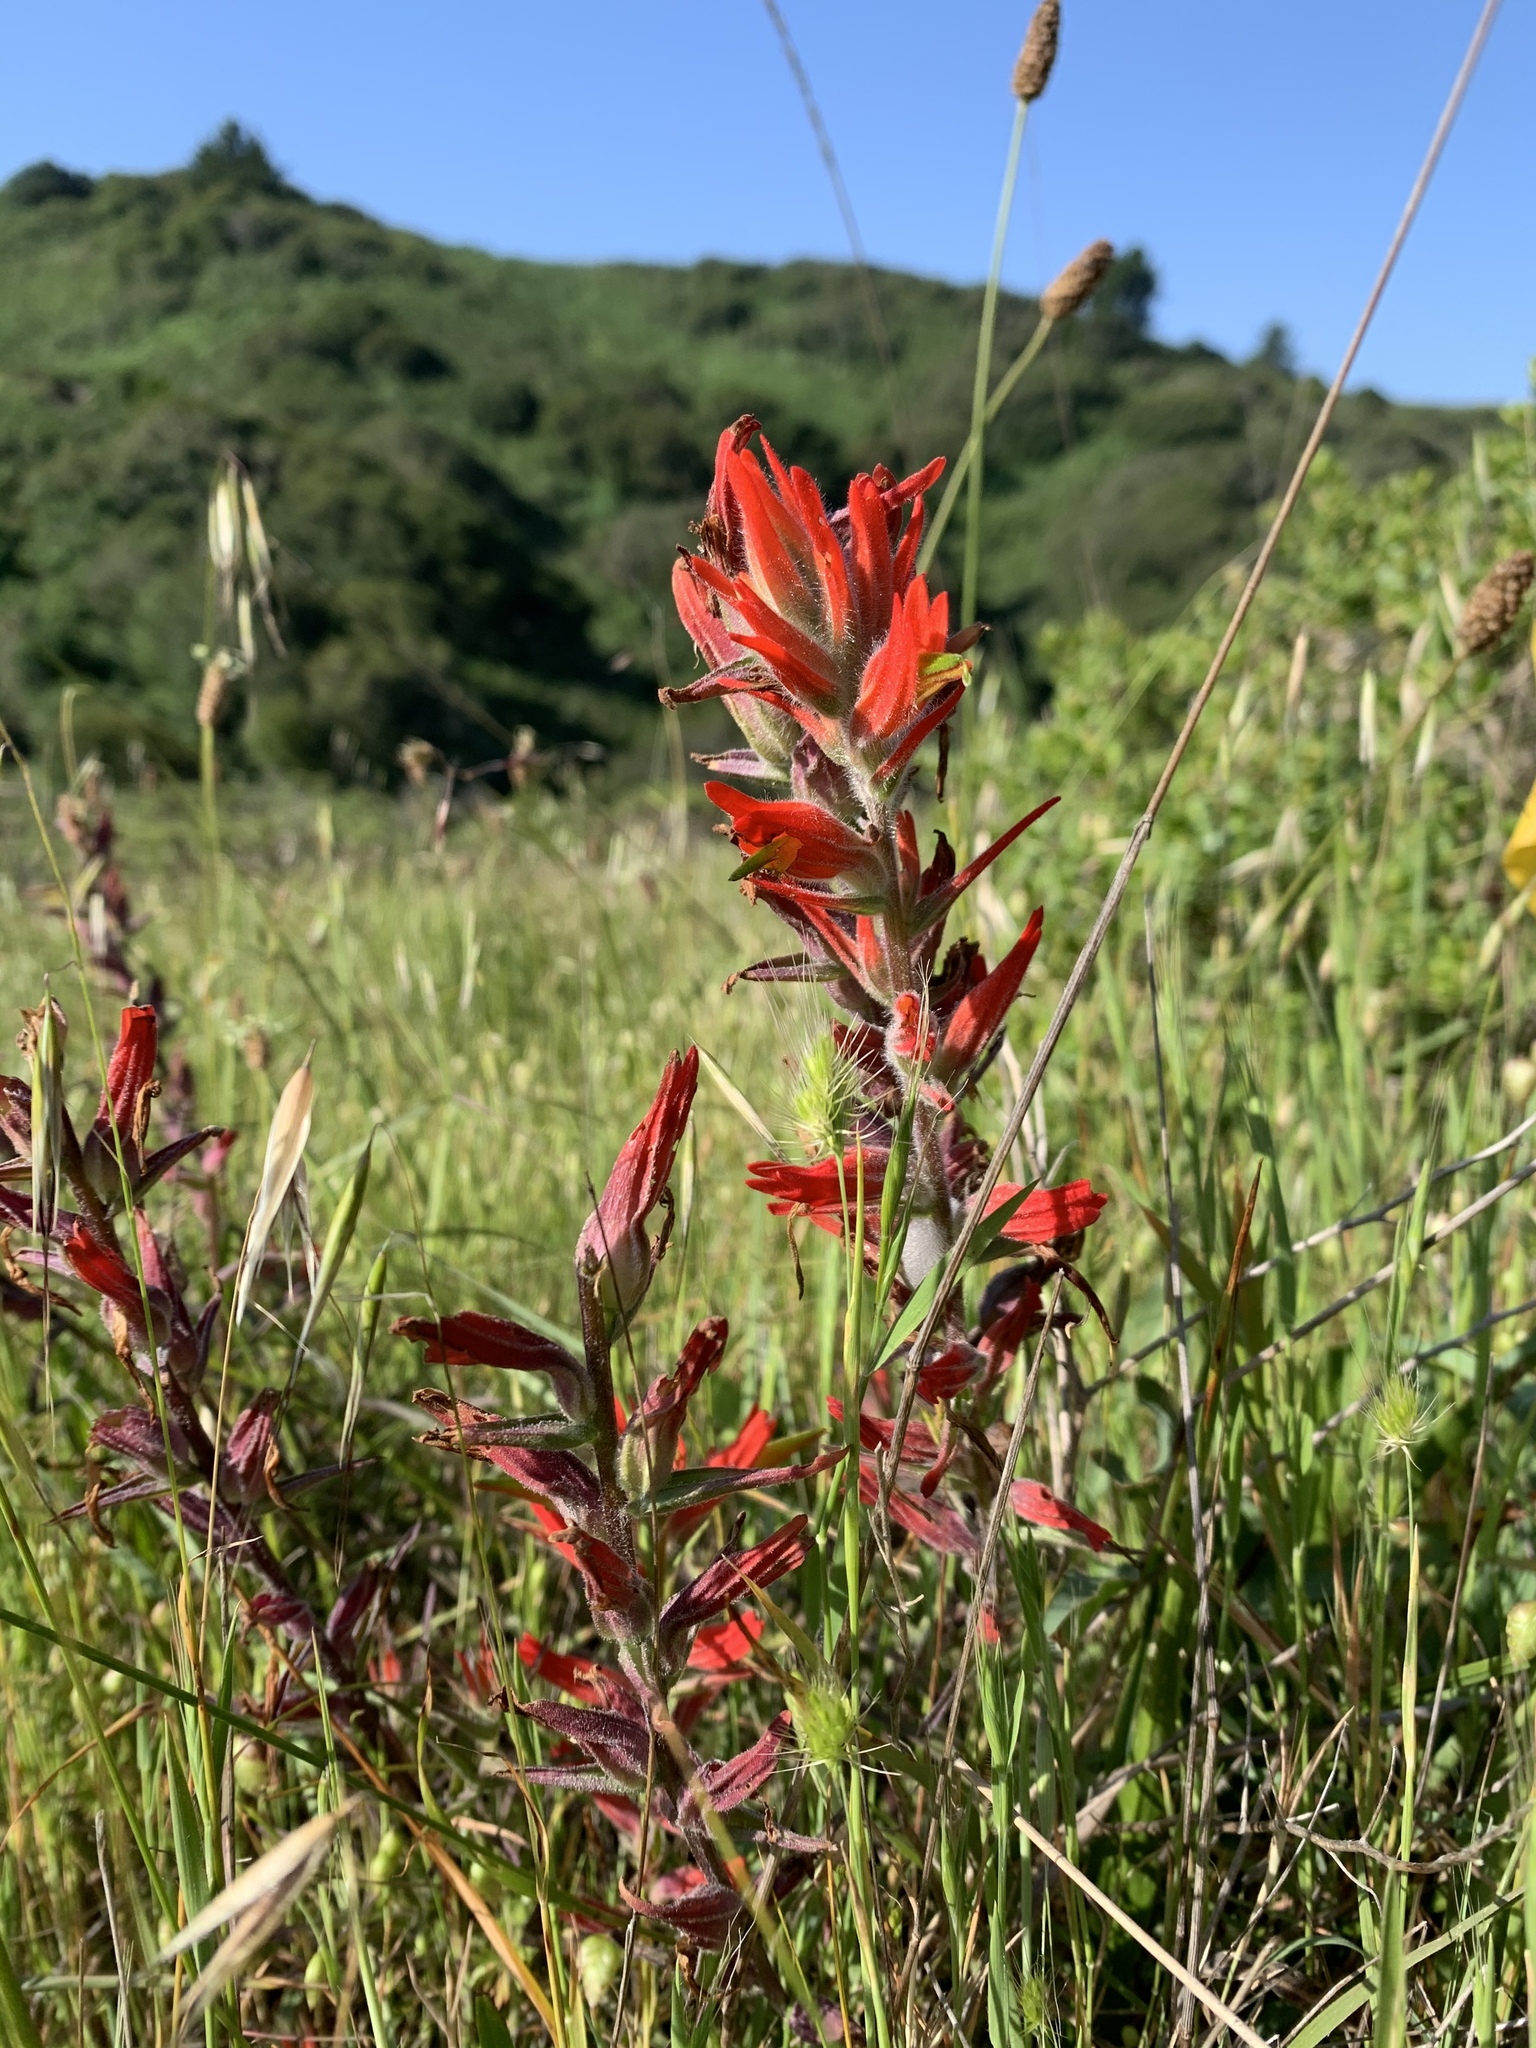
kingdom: Plantae
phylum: Tracheophyta
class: Magnoliopsida
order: Lamiales
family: Orobanchaceae
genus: Castilleja
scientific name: Castilleja subinclusa
